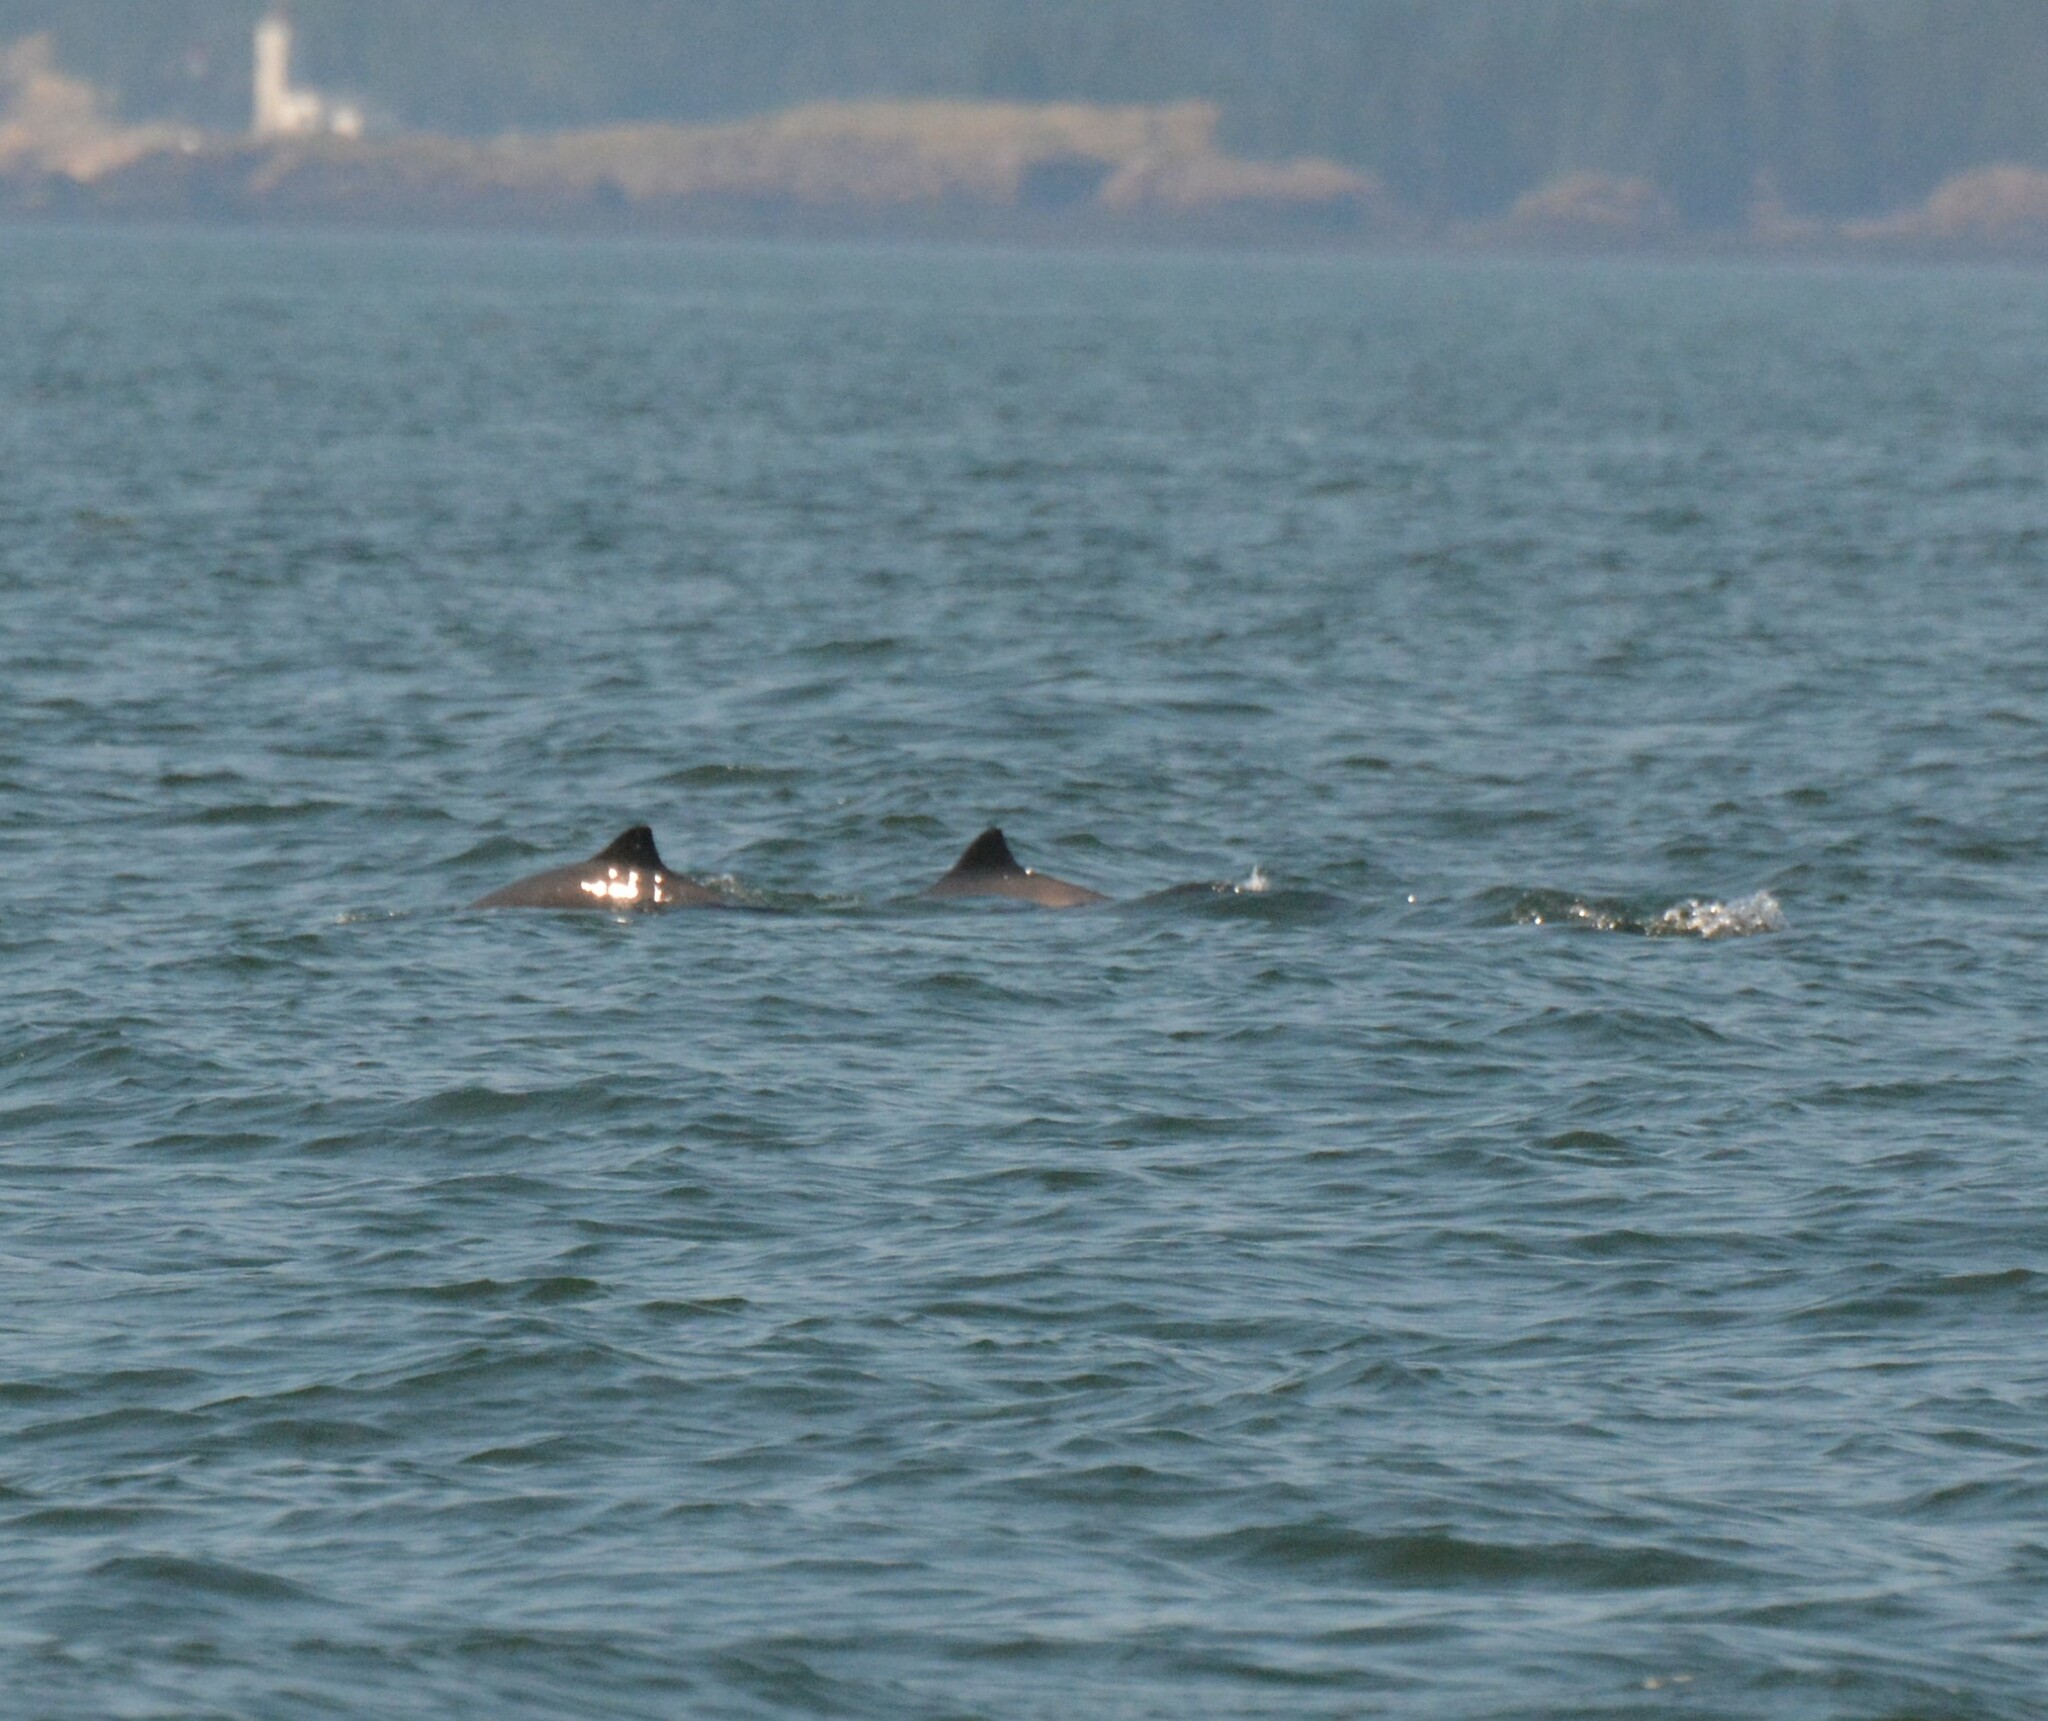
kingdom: Animalia
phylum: Chordata
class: Mammalia
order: Cetacea
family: Phocoenidae
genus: Phocoena
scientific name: Phocoena phocoena
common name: Harbor porpoise
